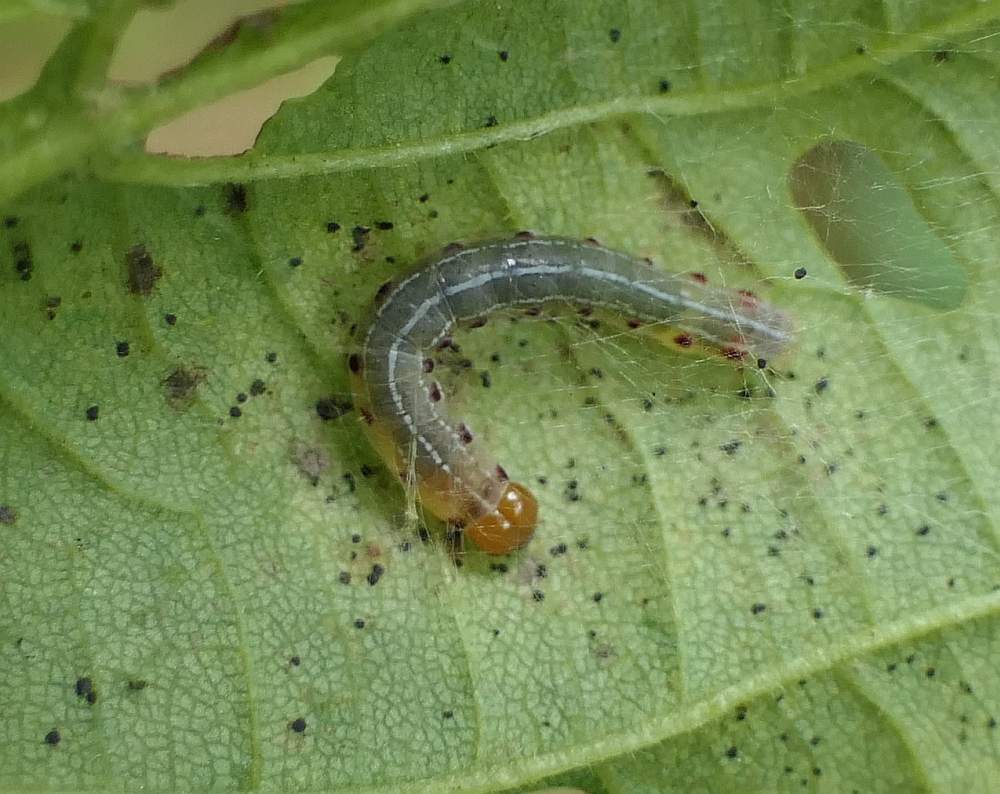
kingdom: Animalia
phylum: Arthropoda
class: Insecta
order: Lepidoptera
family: Noctuidae
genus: Achatia
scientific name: Achatia confusa
